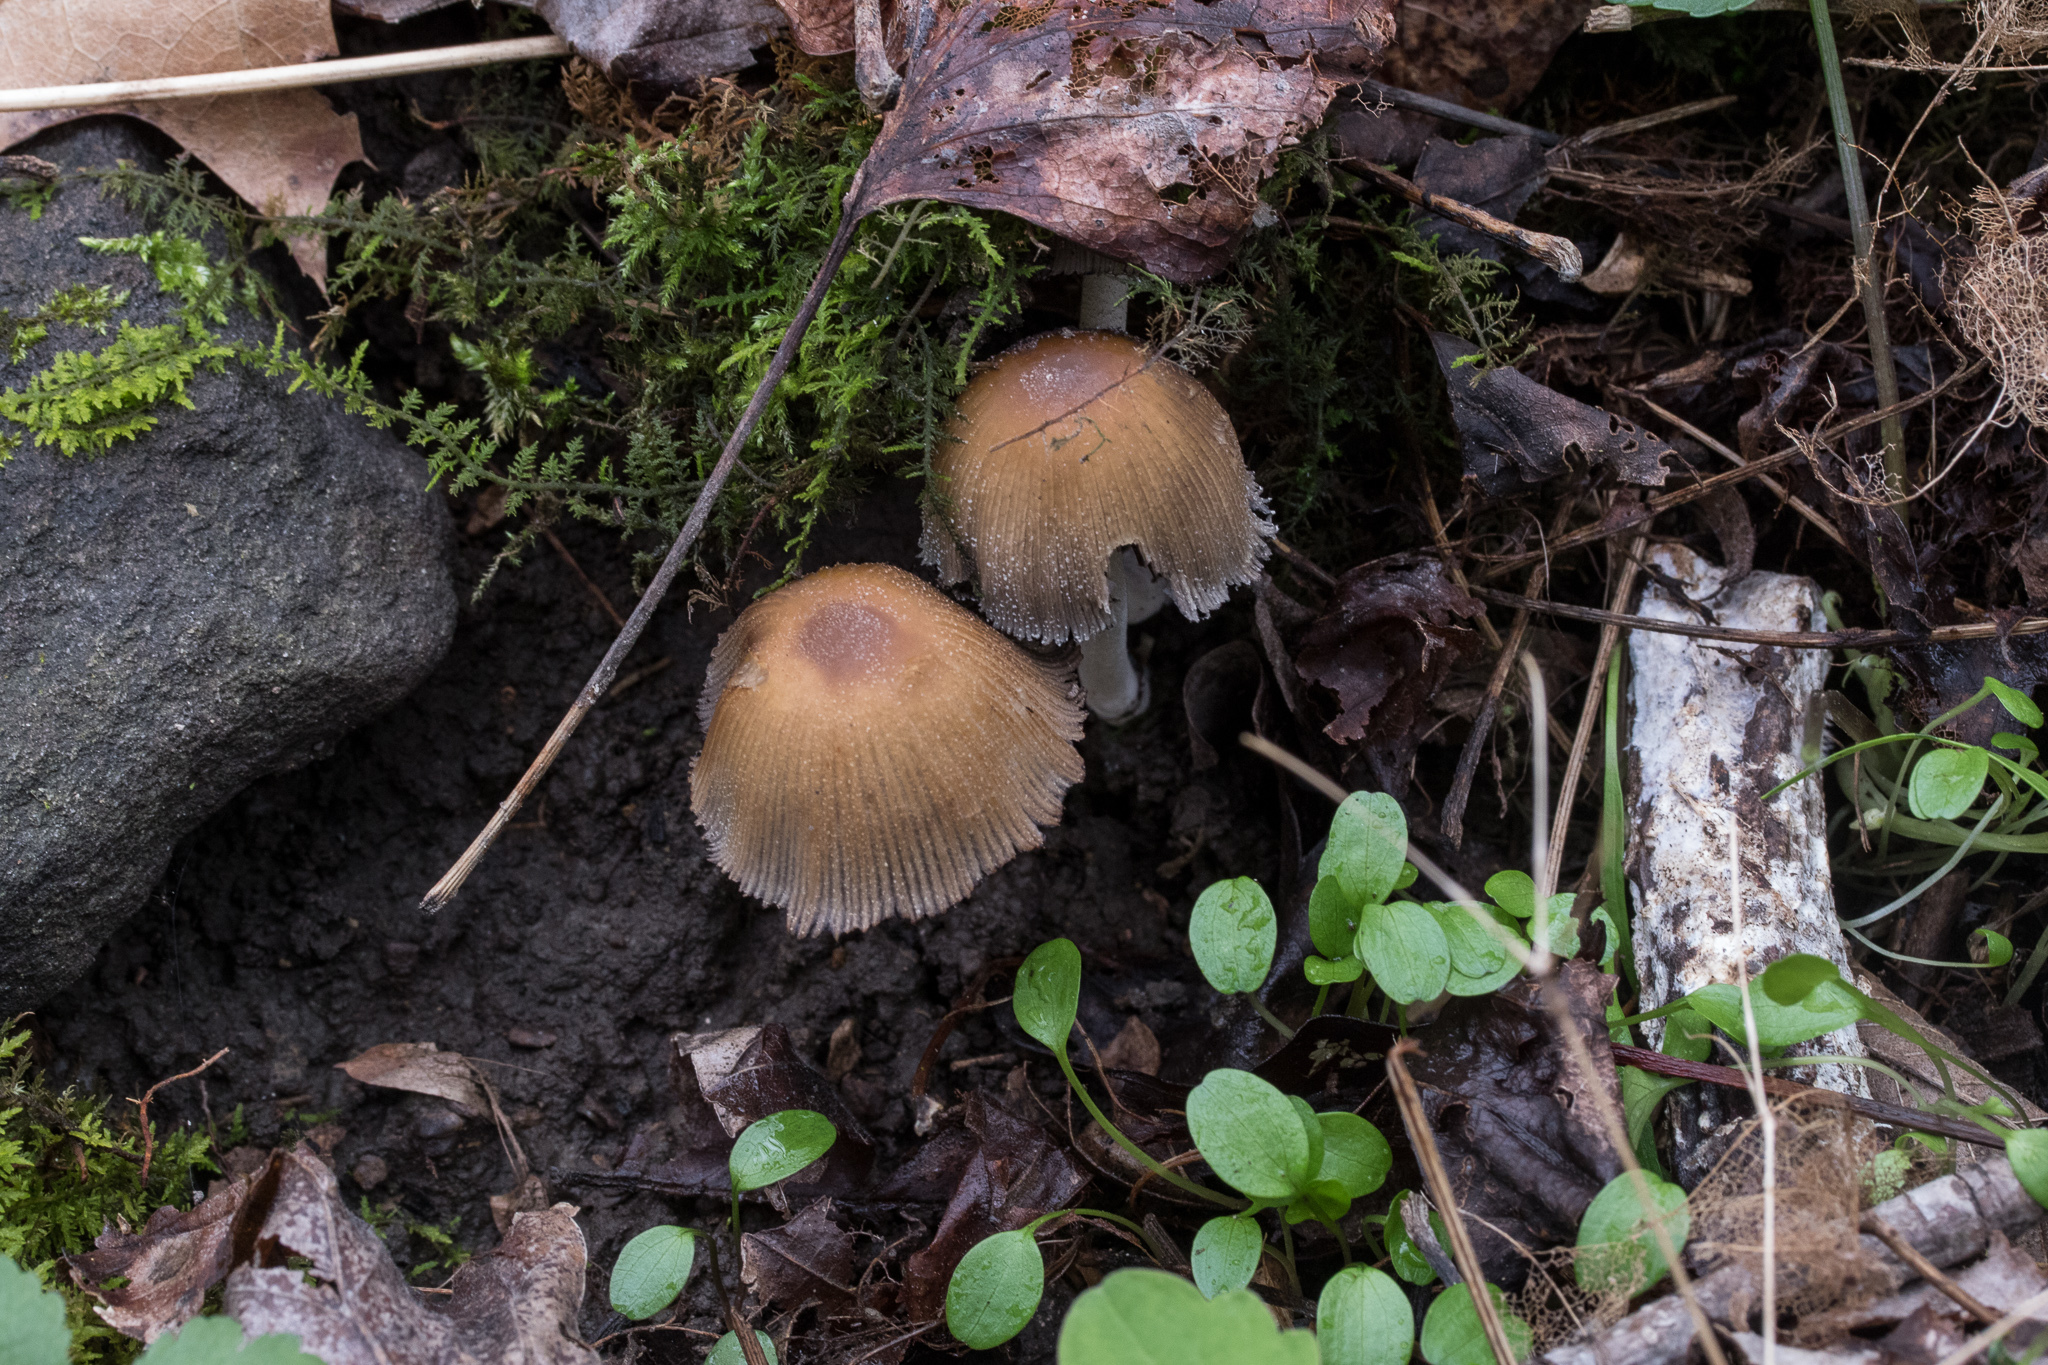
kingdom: Fungi
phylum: Basidiomycota
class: Agaricomycetes
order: Agaricales
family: Psathyrellaceae
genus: Coprinellus
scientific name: Coprinellus micaceus
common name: Glistening ink-cap
